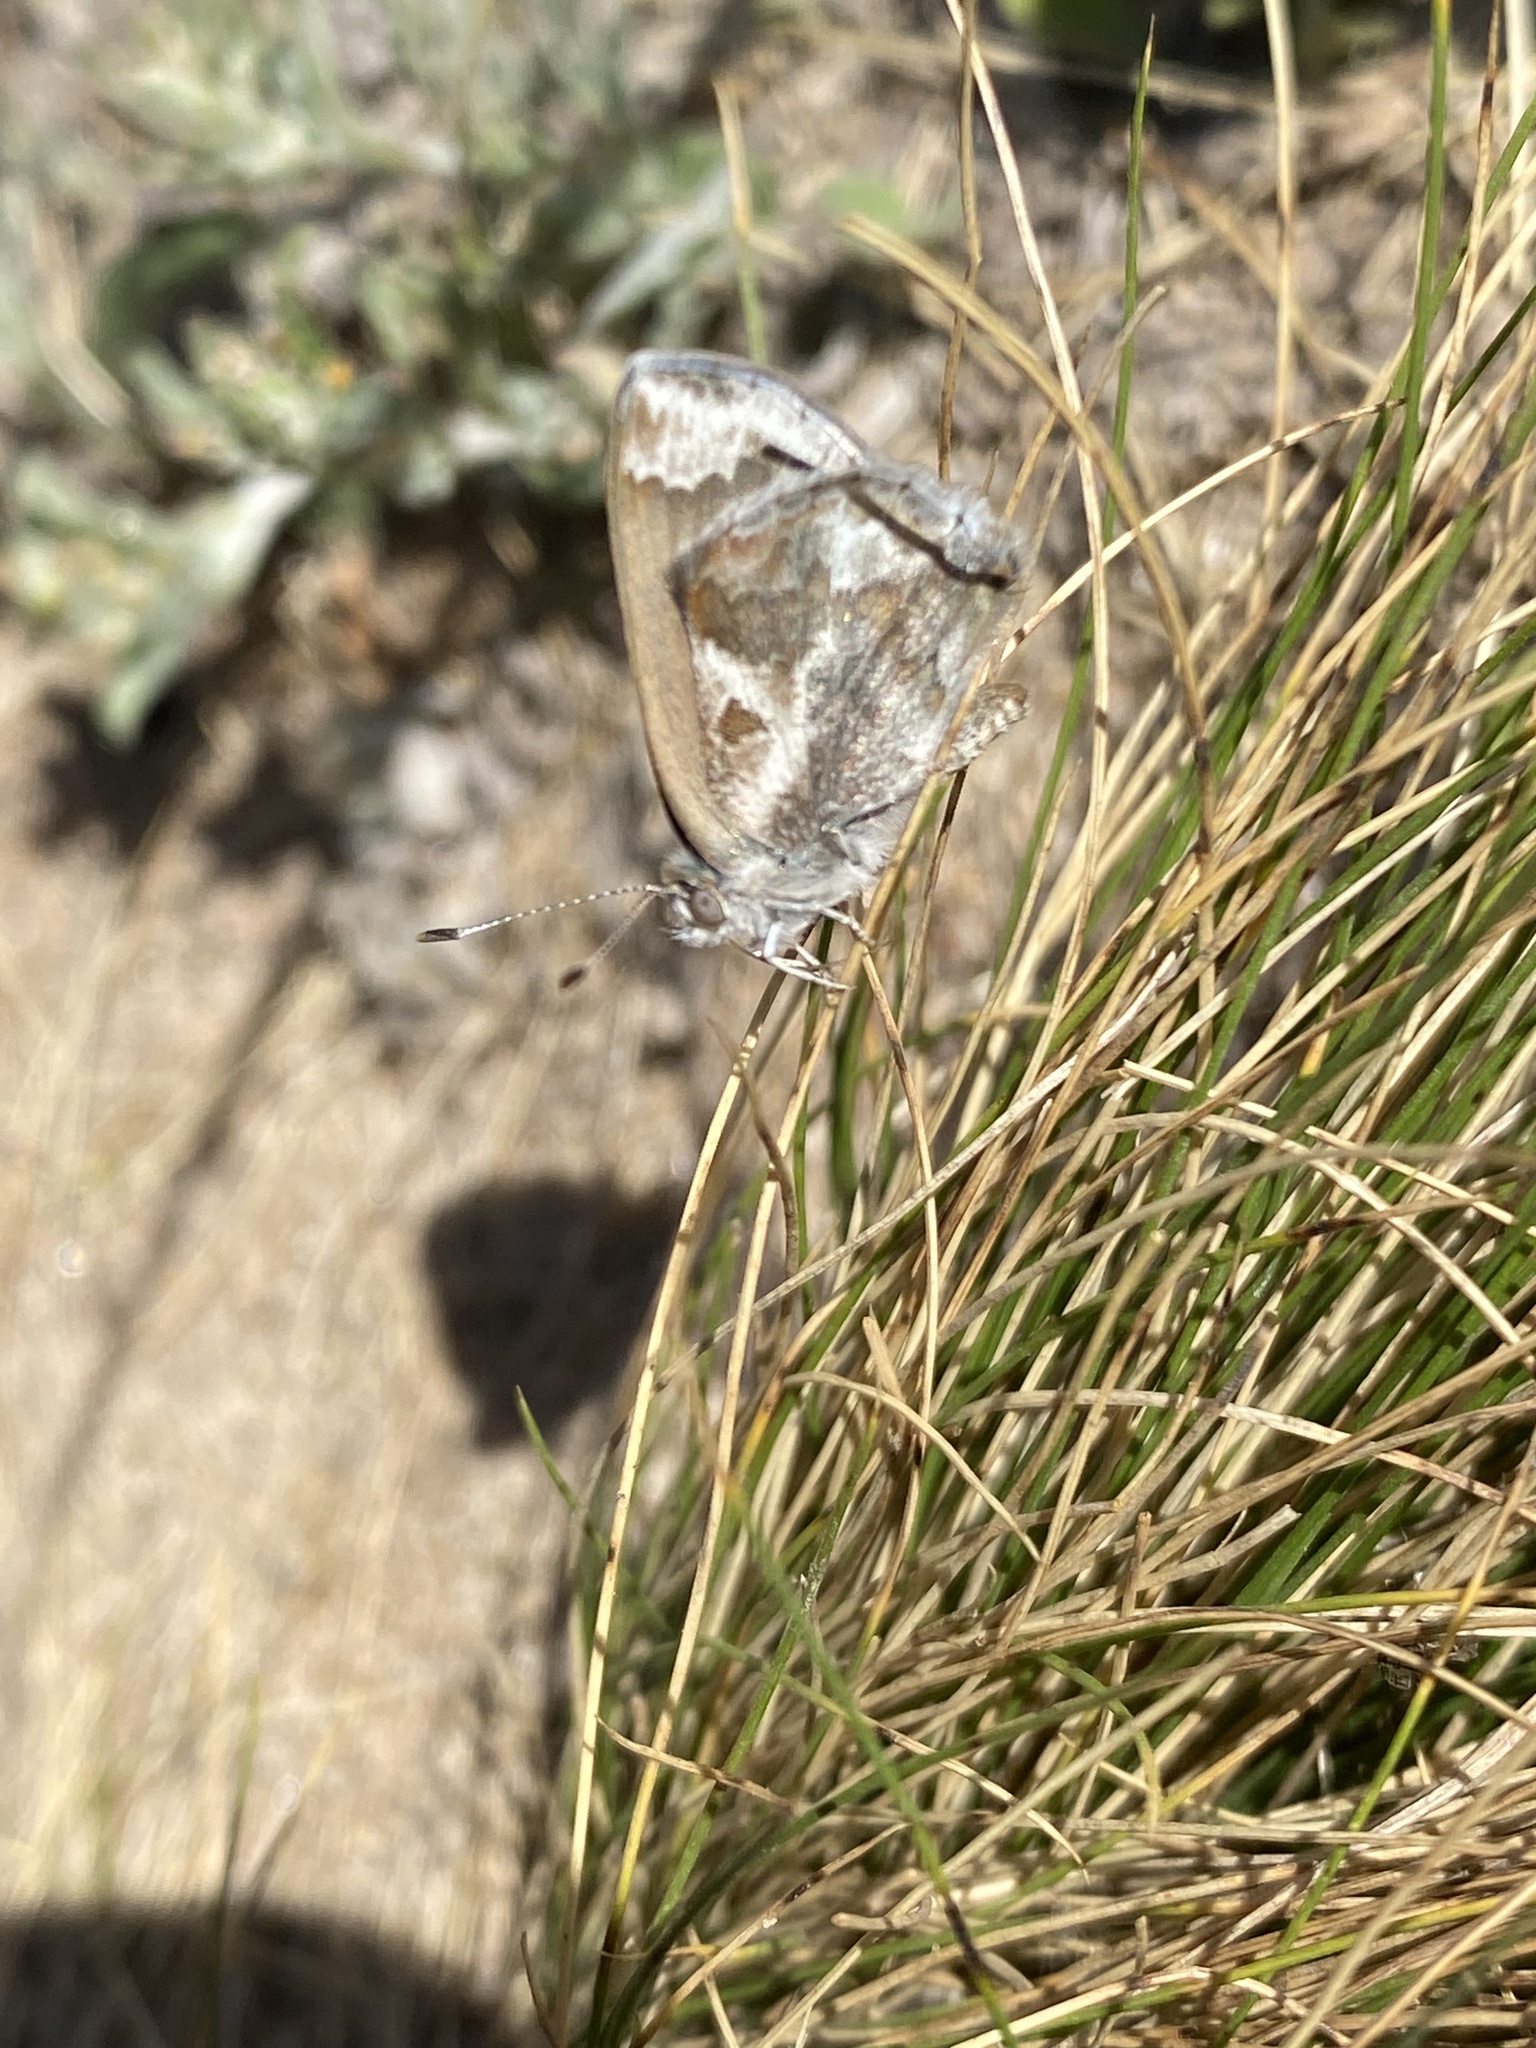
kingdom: Animalia
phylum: Arthropoda
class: Insecta
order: Lepidoptera
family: Lycaenidae
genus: Strymon
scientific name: Strymon bazochii
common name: Lantana scrub-hairstreak
